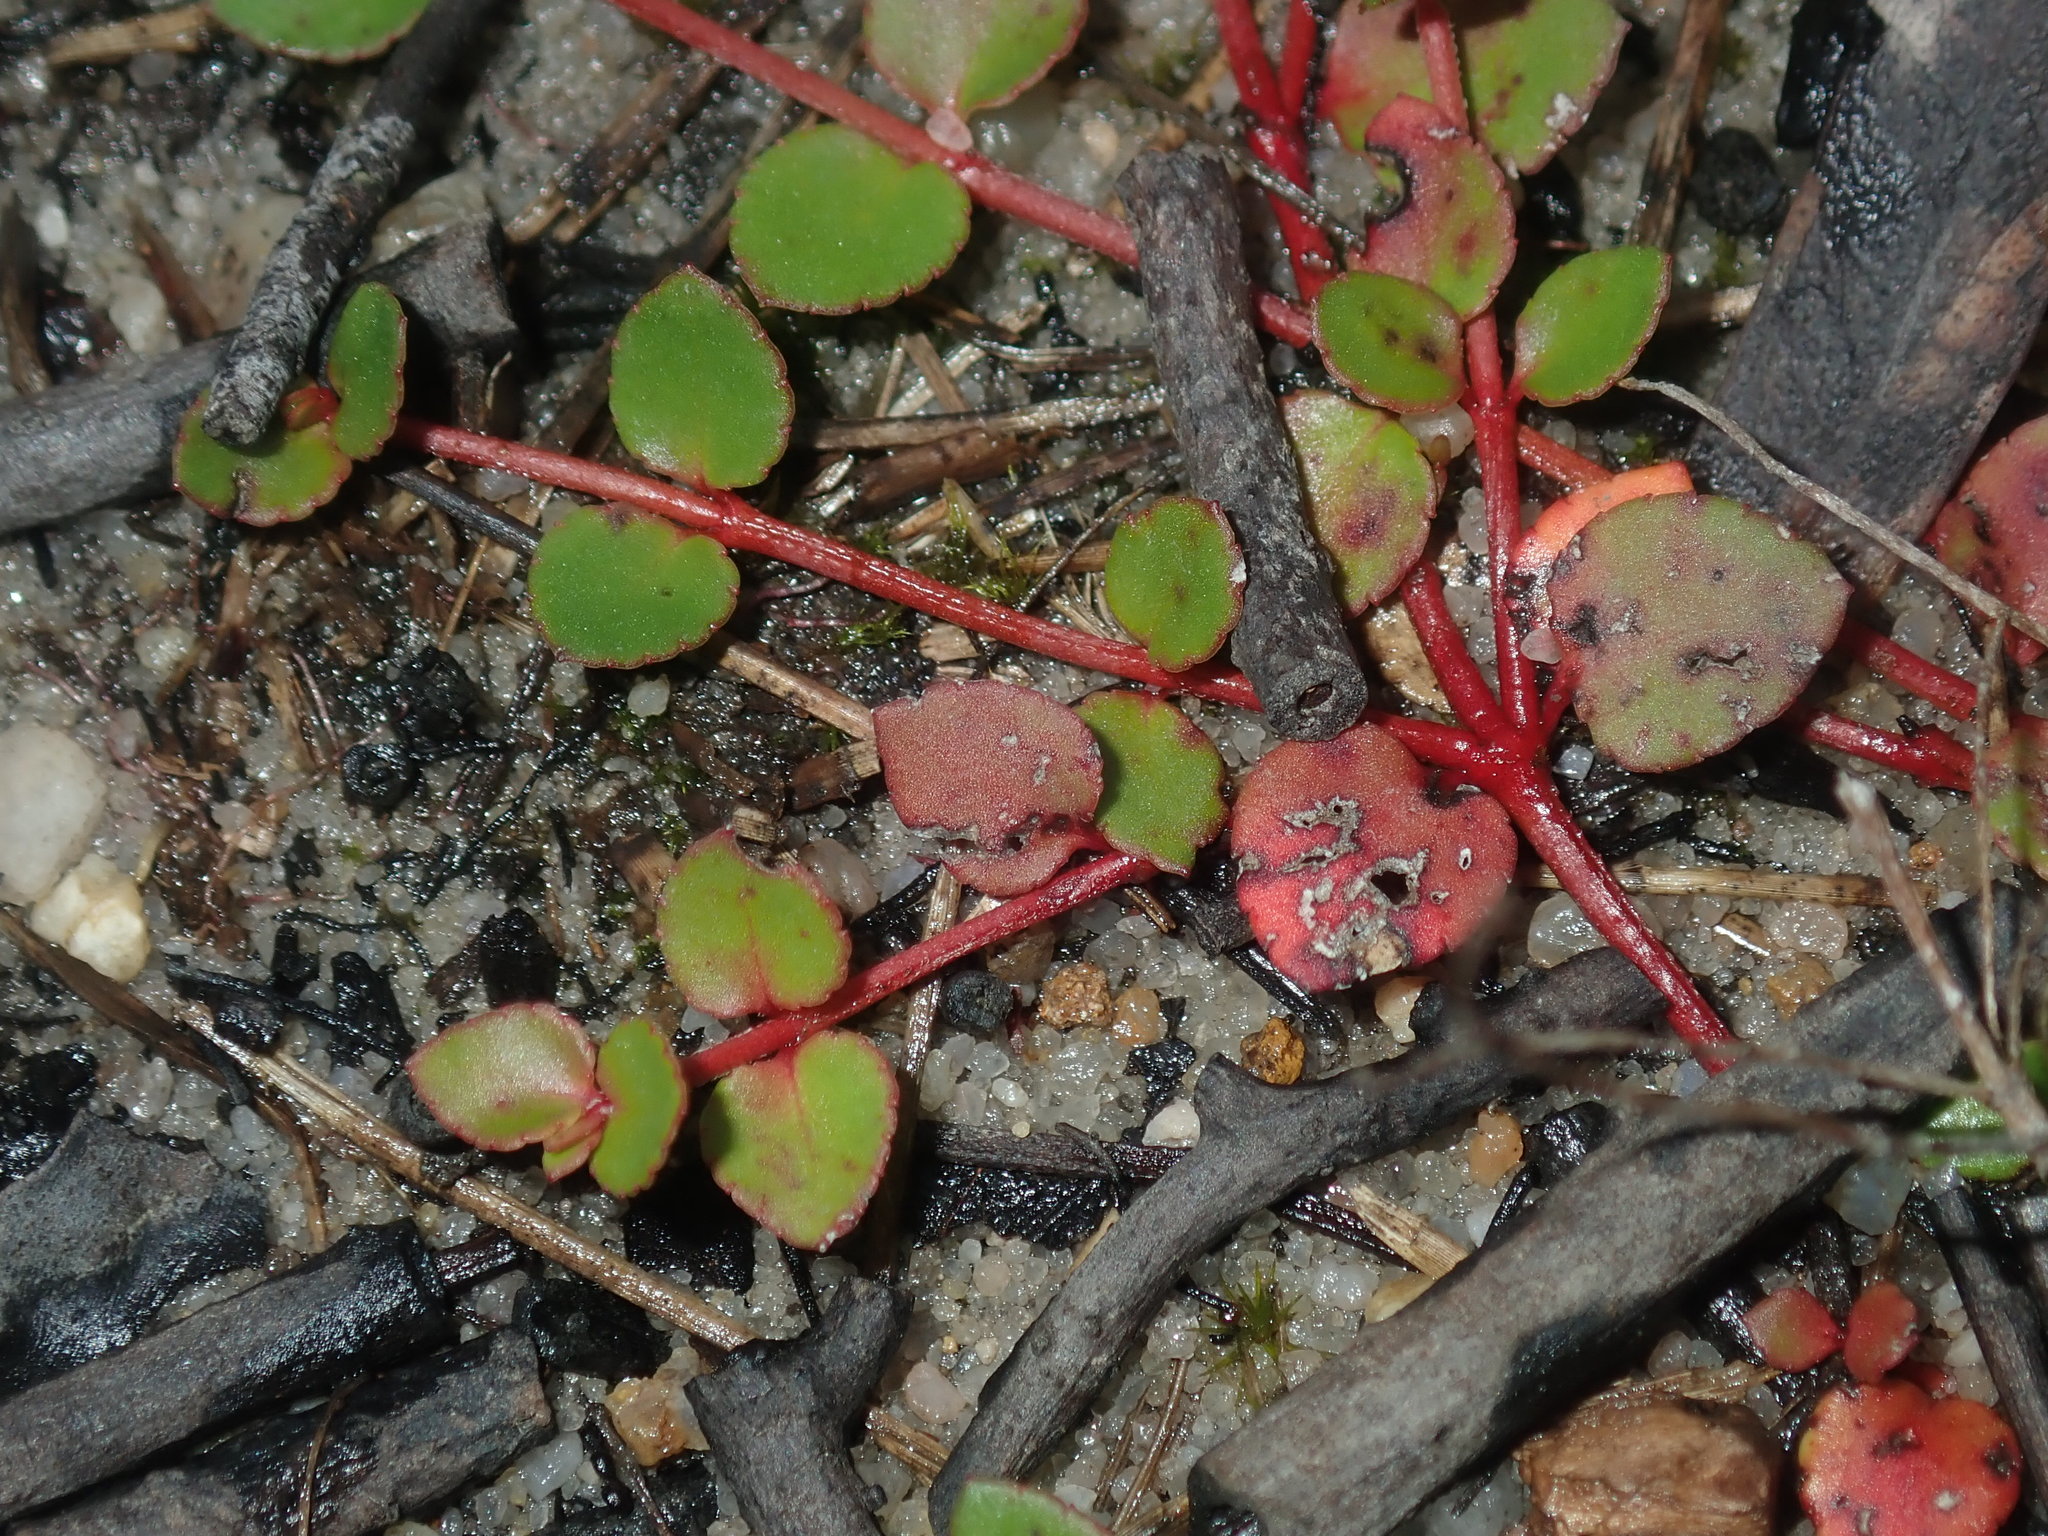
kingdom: Plantae
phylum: Tracheophyta
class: Magnoliopsida
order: Saxifragales
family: Haloragaceae
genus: Gonocarpus
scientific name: Gonocarpus micranthus
